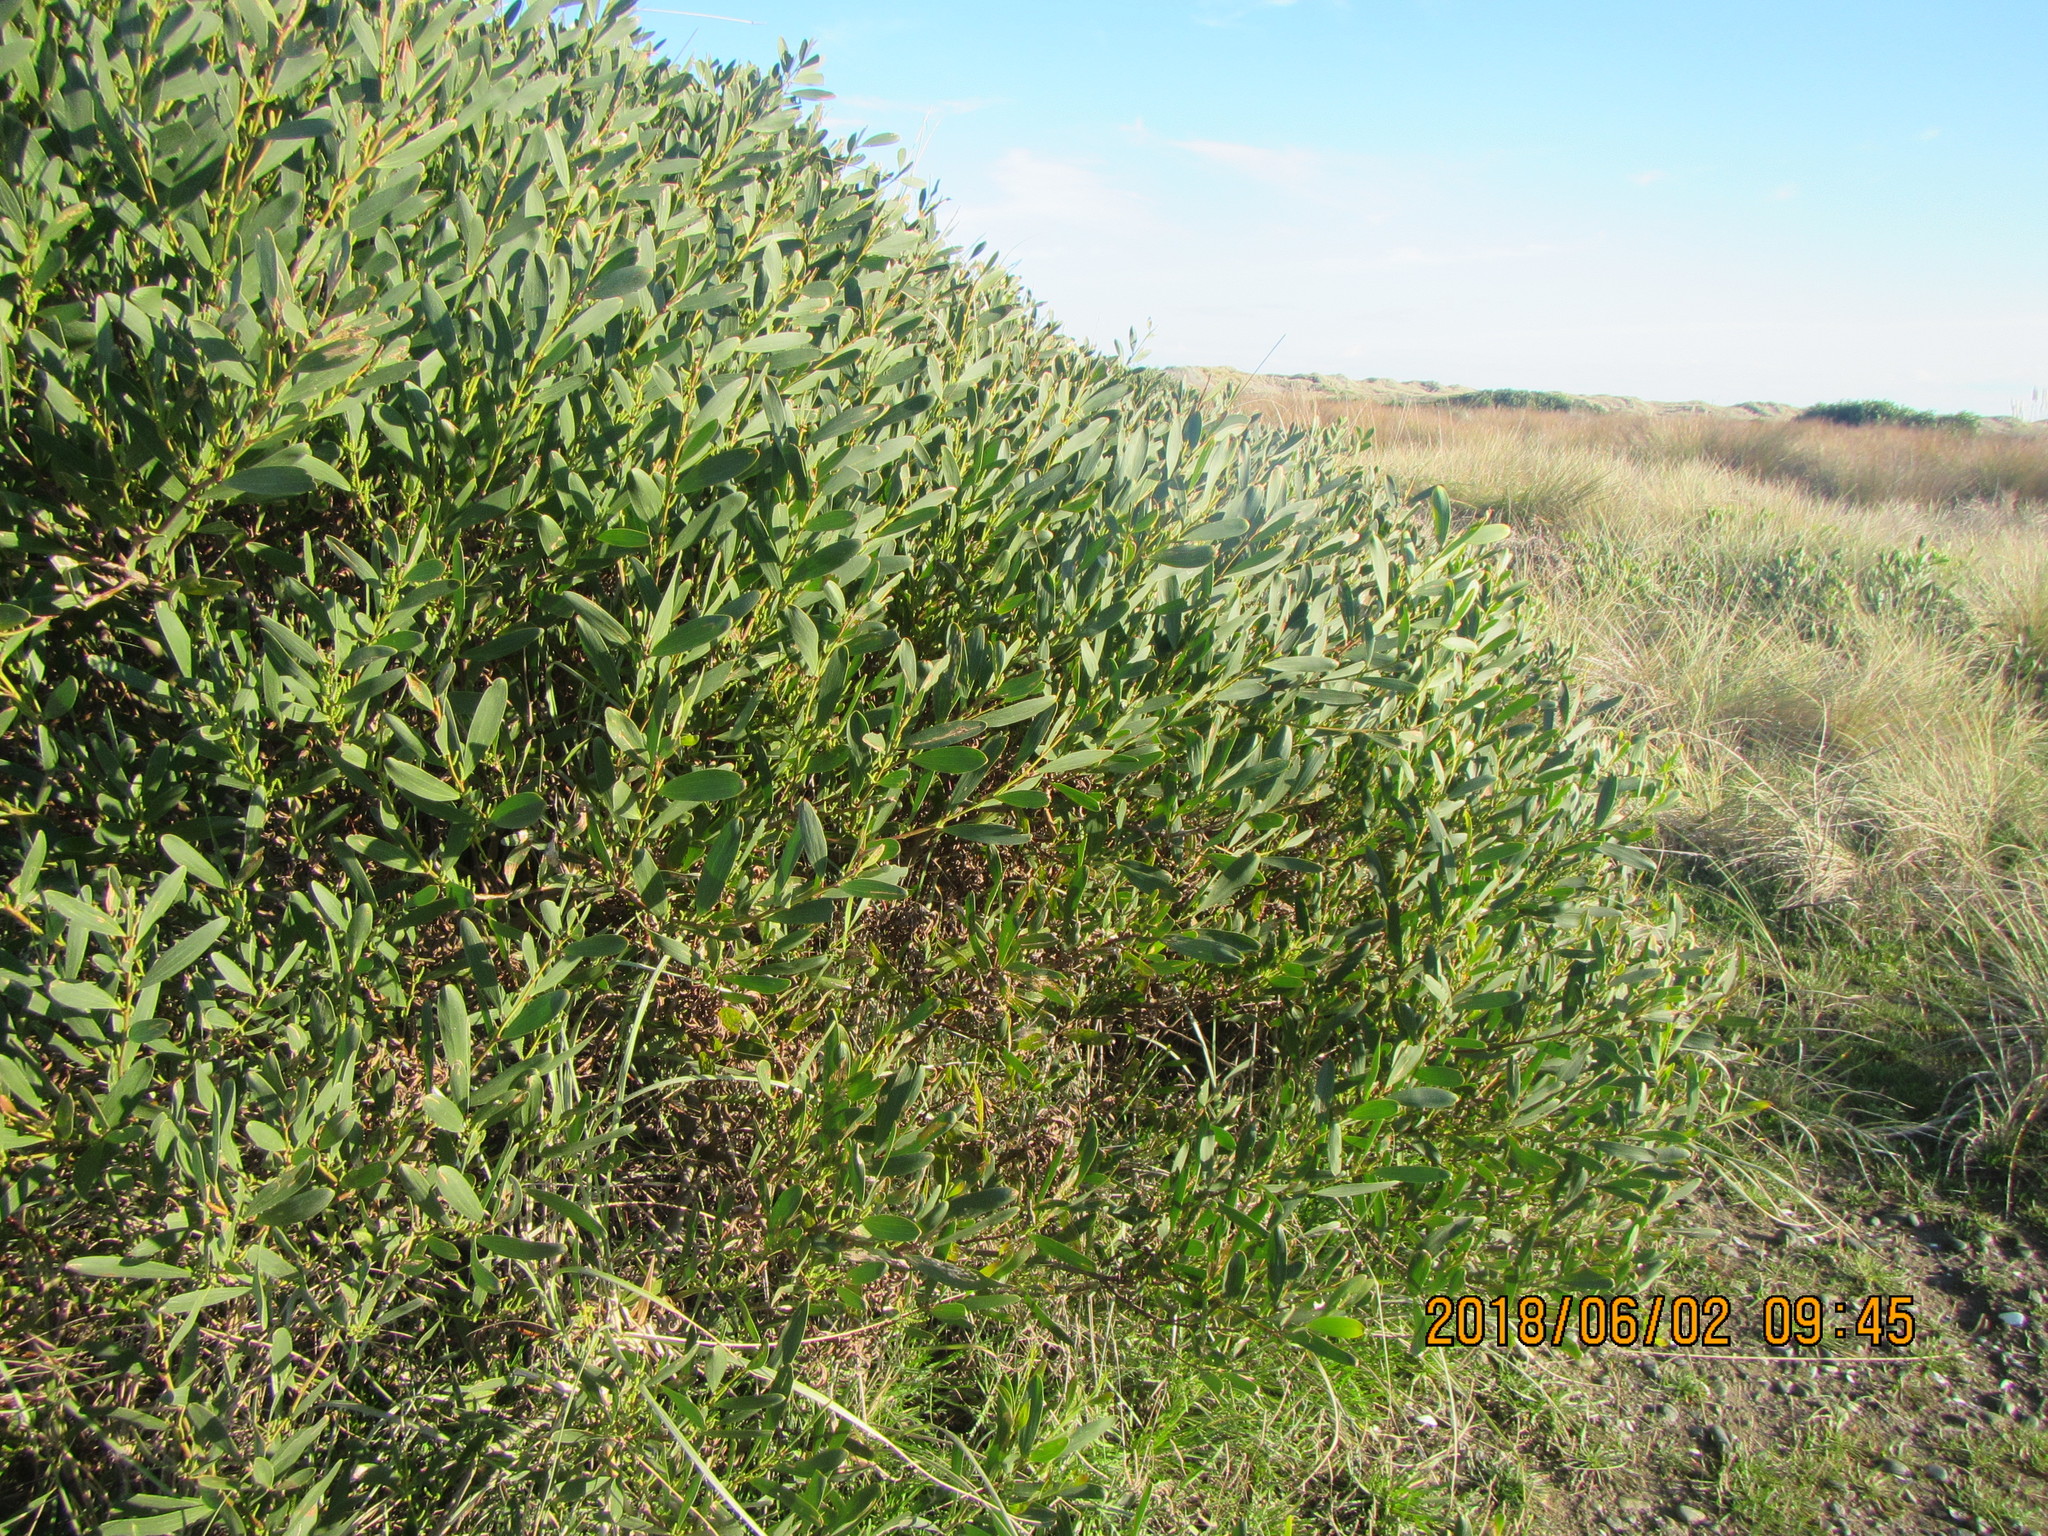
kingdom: Plantae
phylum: Tracheophyta
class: Magnoliopsida
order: Fabales
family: Fabaceae
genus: Acacia
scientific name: Acacia longifolia
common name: Sydney golden wattle
